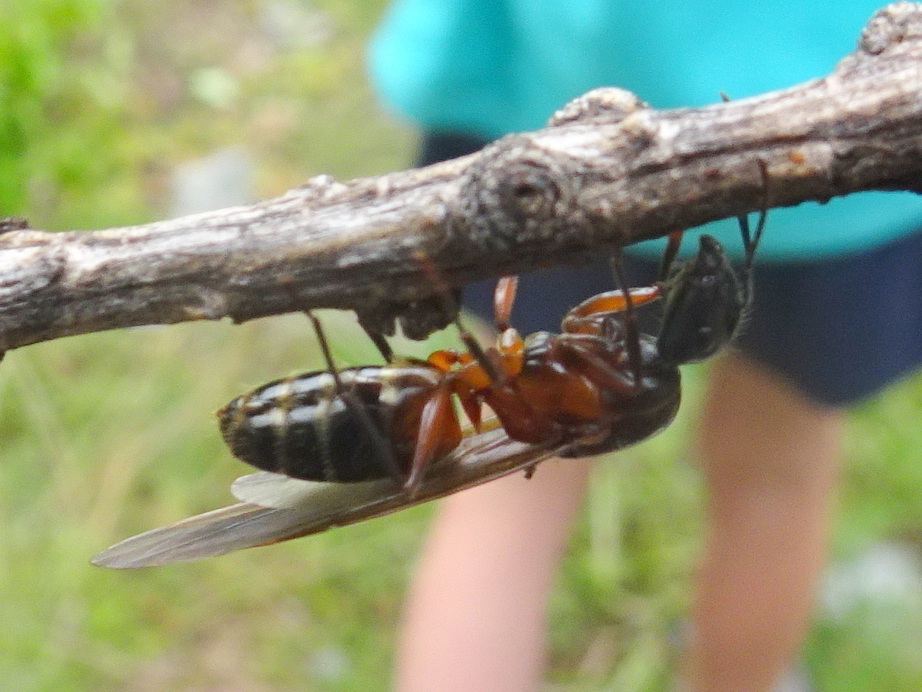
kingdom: Animalia
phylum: Arthropoda
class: Insecta
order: Hymenoptera
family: Formicidae
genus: Camponotus
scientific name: Camponotus ligniperdus
